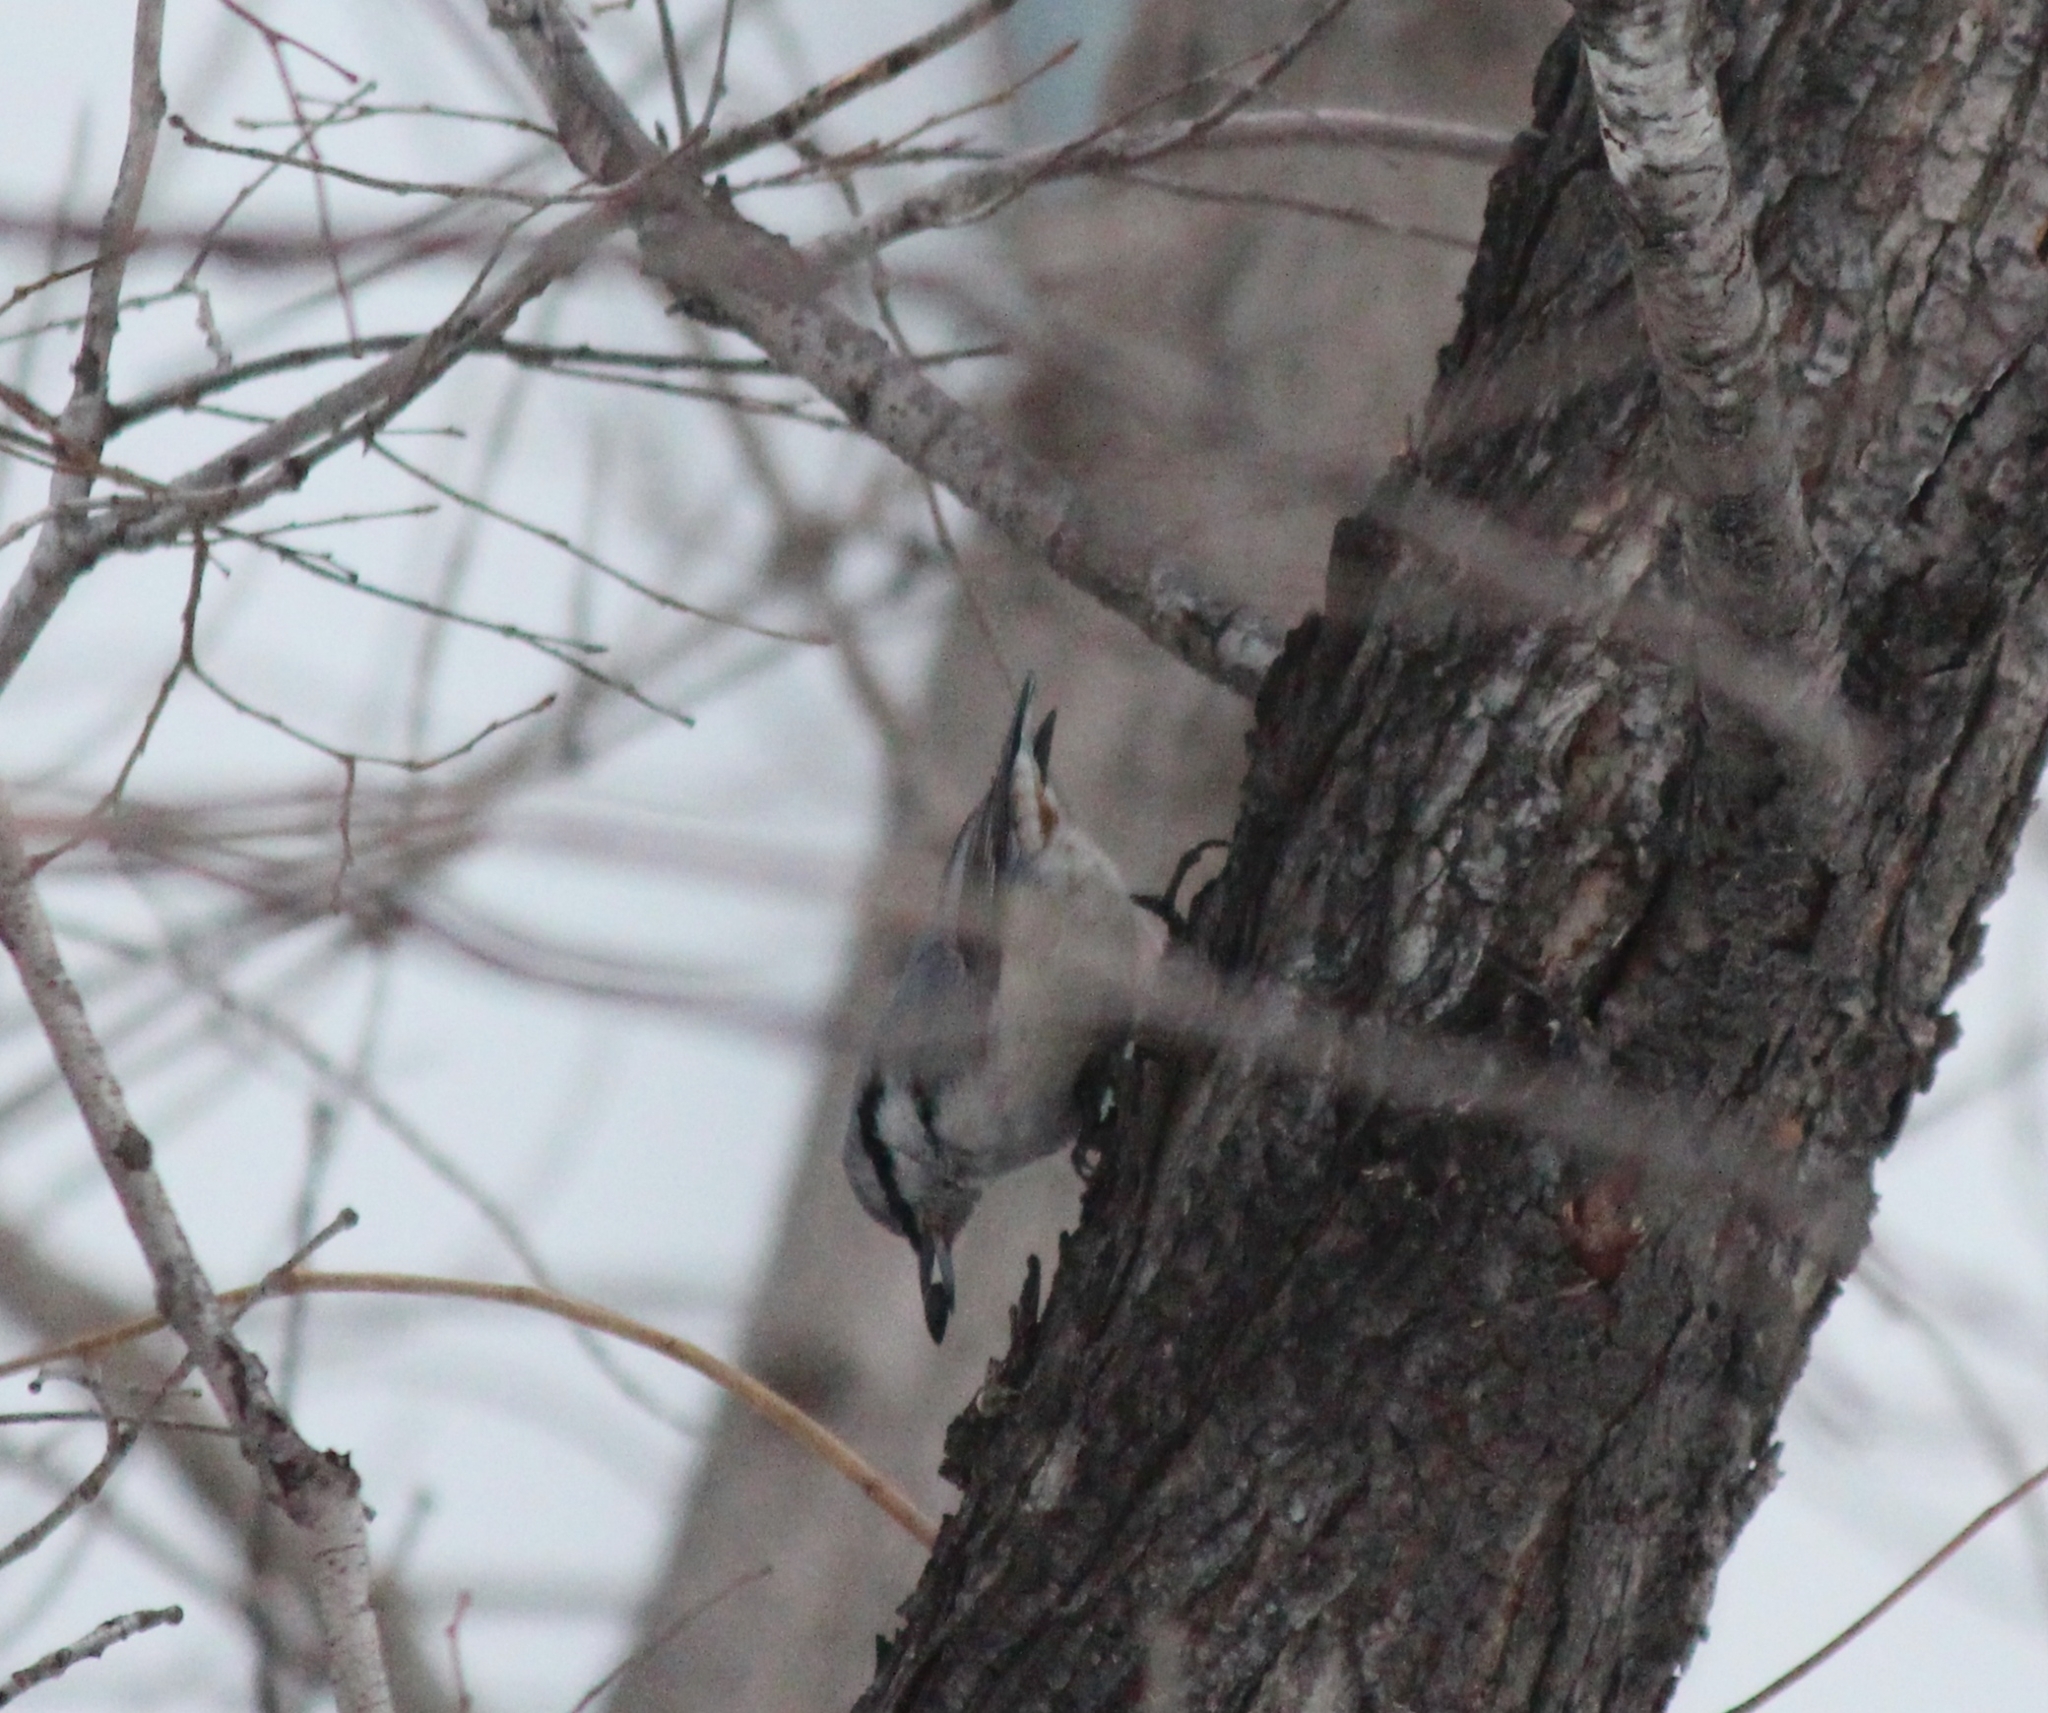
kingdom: Animalia
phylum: Chordata
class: Aves
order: Passeriformes
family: Sittidae
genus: Sitta
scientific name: Sitta europaea
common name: Eurasian nuthatch
